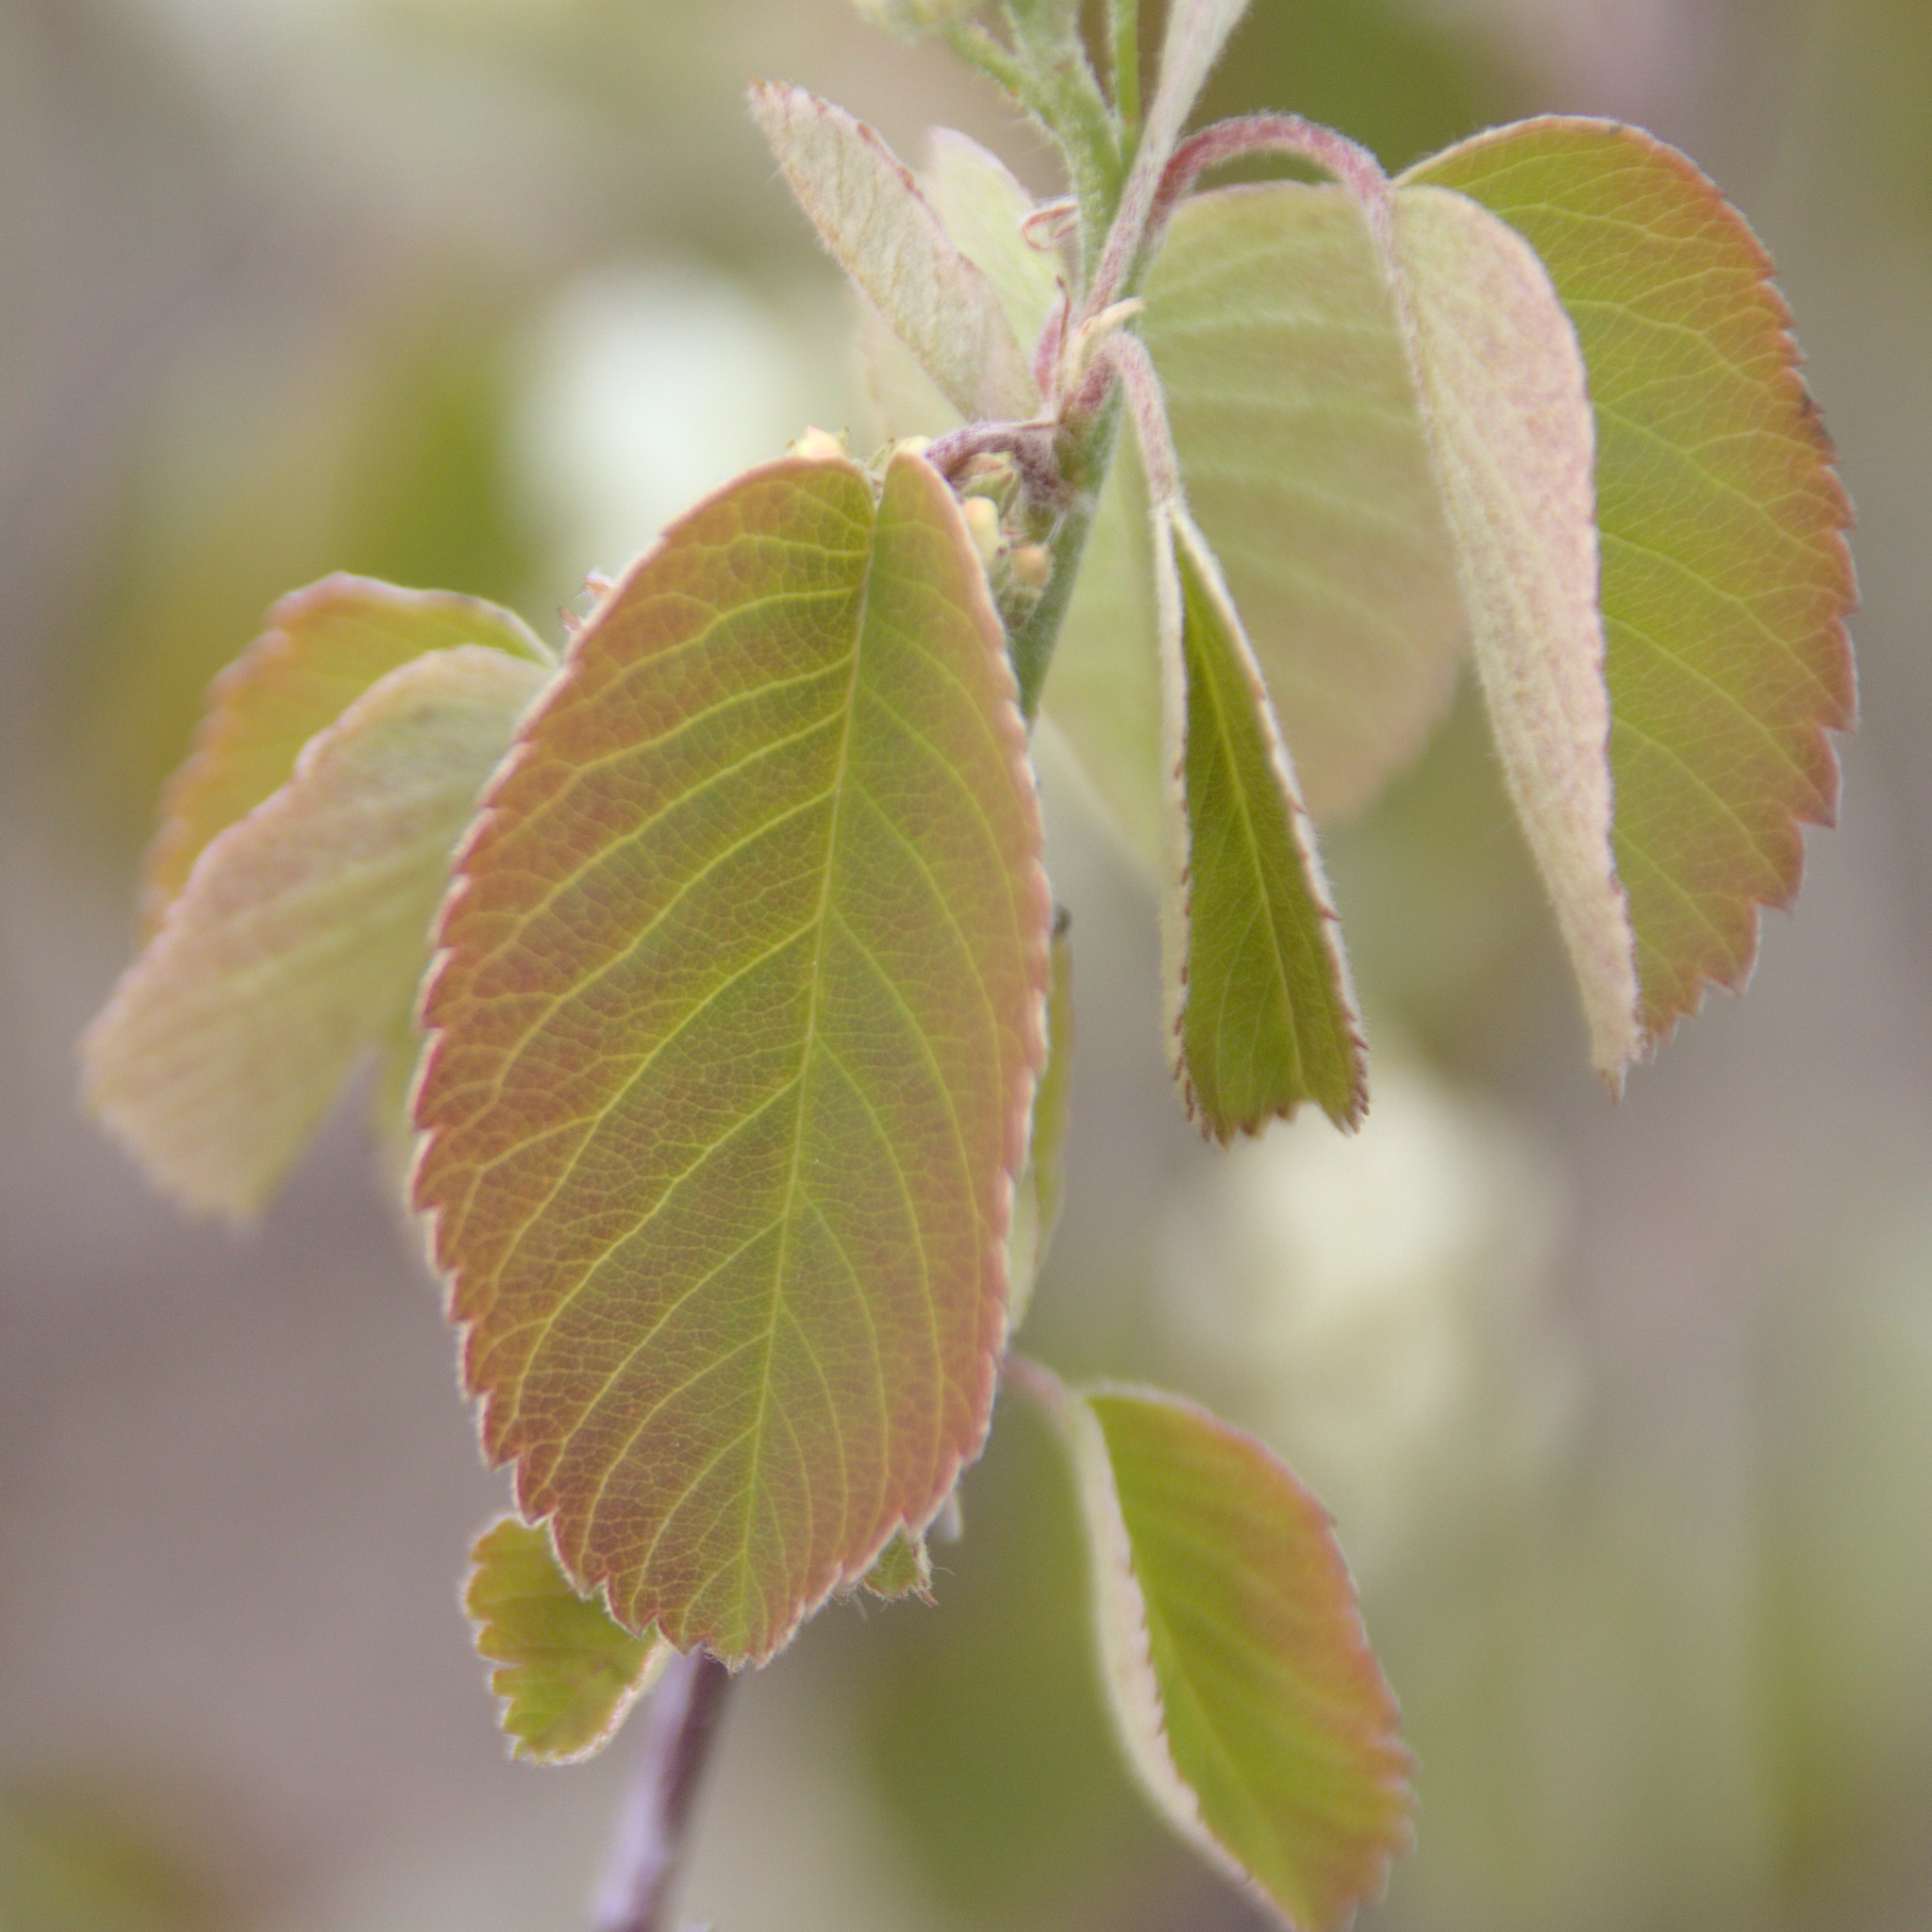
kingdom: Plantae
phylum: Tracheophyta
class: Magnoliopsida
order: Rosales
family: Rosaceae
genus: Amelanchier
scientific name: Amelanchier alnifolia
